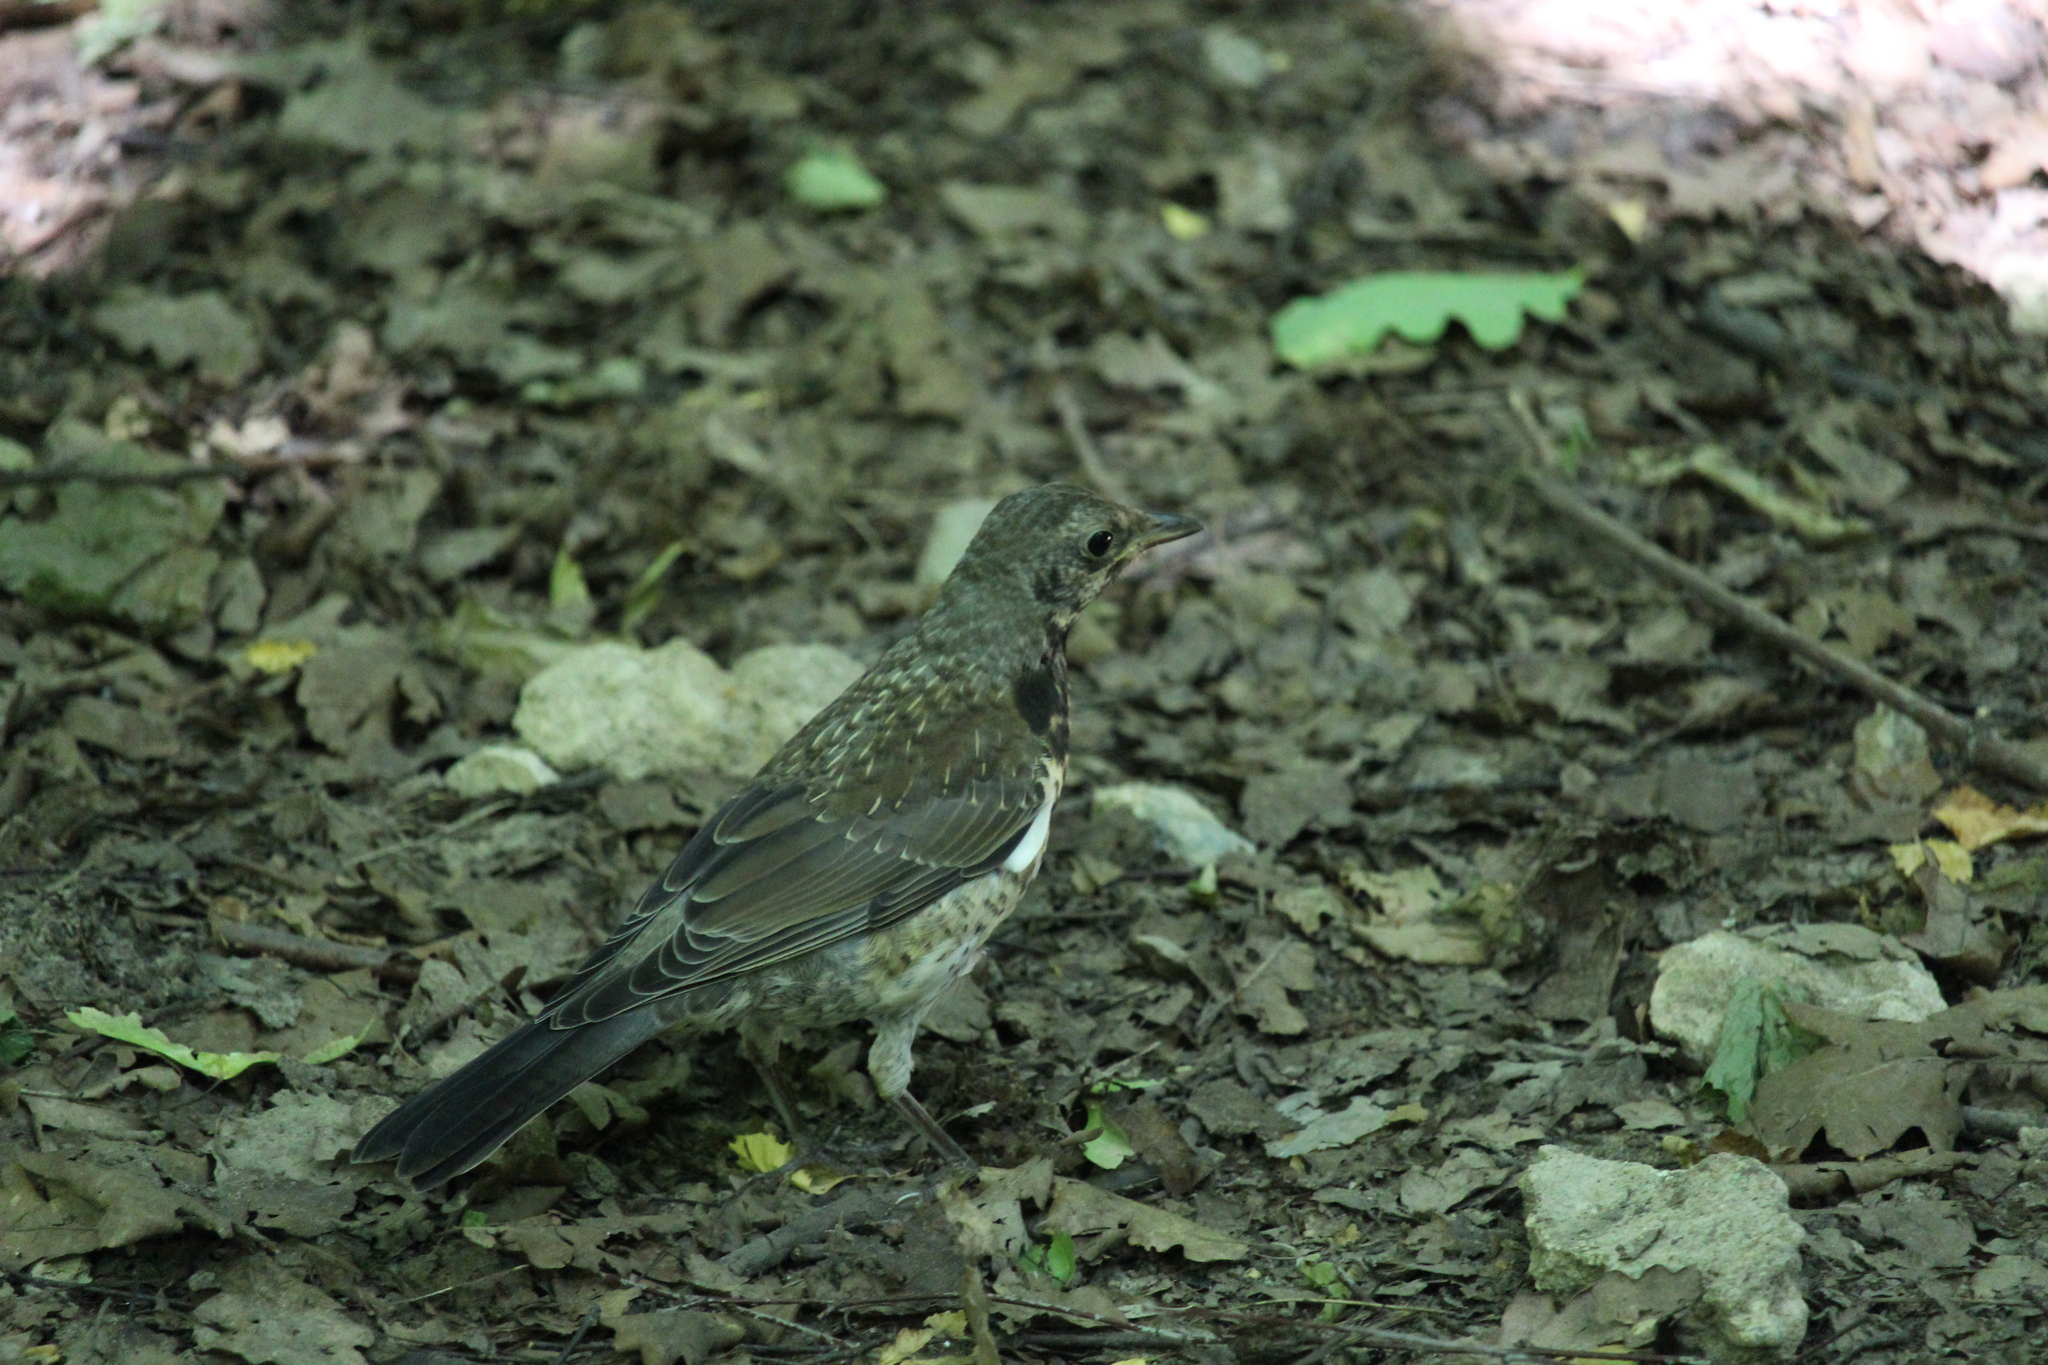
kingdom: Animalia
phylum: Chordata
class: Aves
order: Passeriformes
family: Turdidae
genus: Turdus
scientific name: Turdus pilaris
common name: Fieldfare
